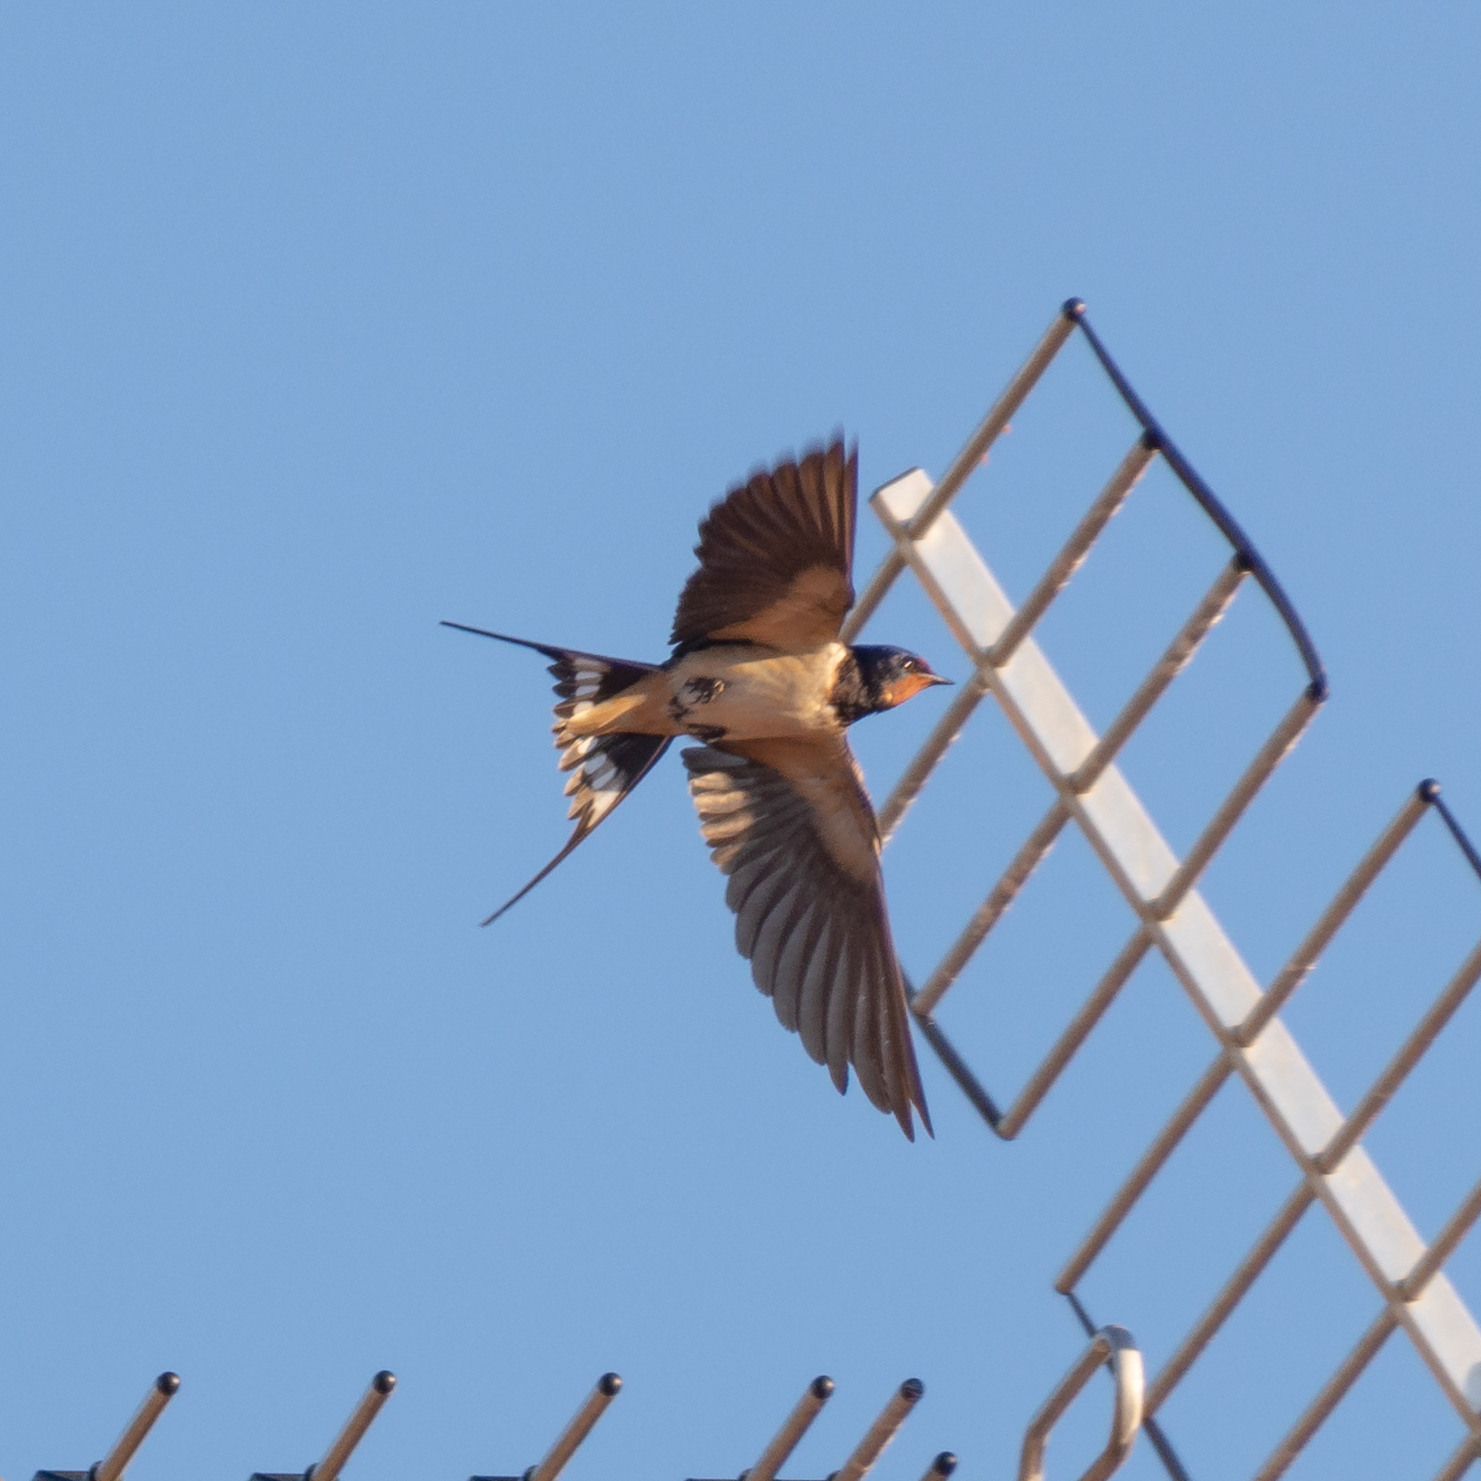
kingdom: Animalia
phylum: Chordata
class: Aves
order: Passeriformes
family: Hirundinidae
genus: Hirundo
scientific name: Hirundo rustica
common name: Barn swallow
